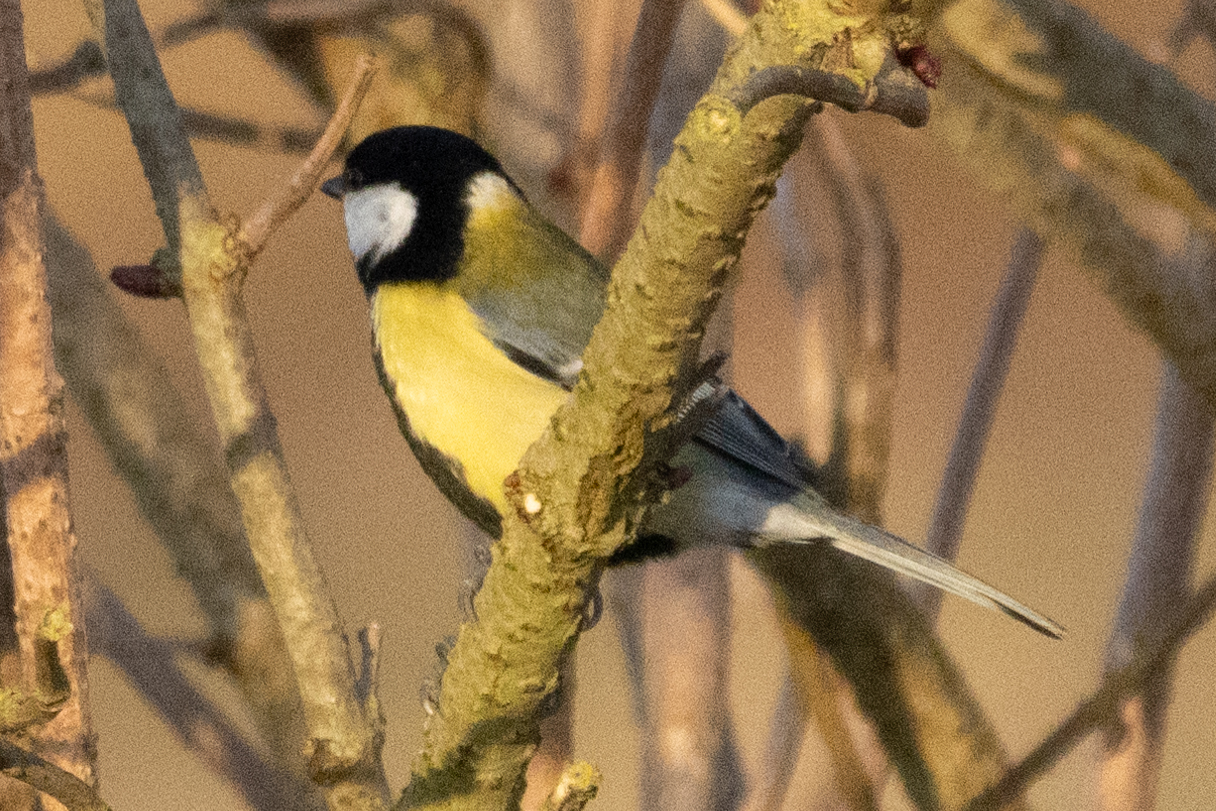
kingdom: Animalia
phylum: Chordata
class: Aves
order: Passeriformes
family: Paridae
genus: Parus
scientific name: Parus major
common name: Great tit
